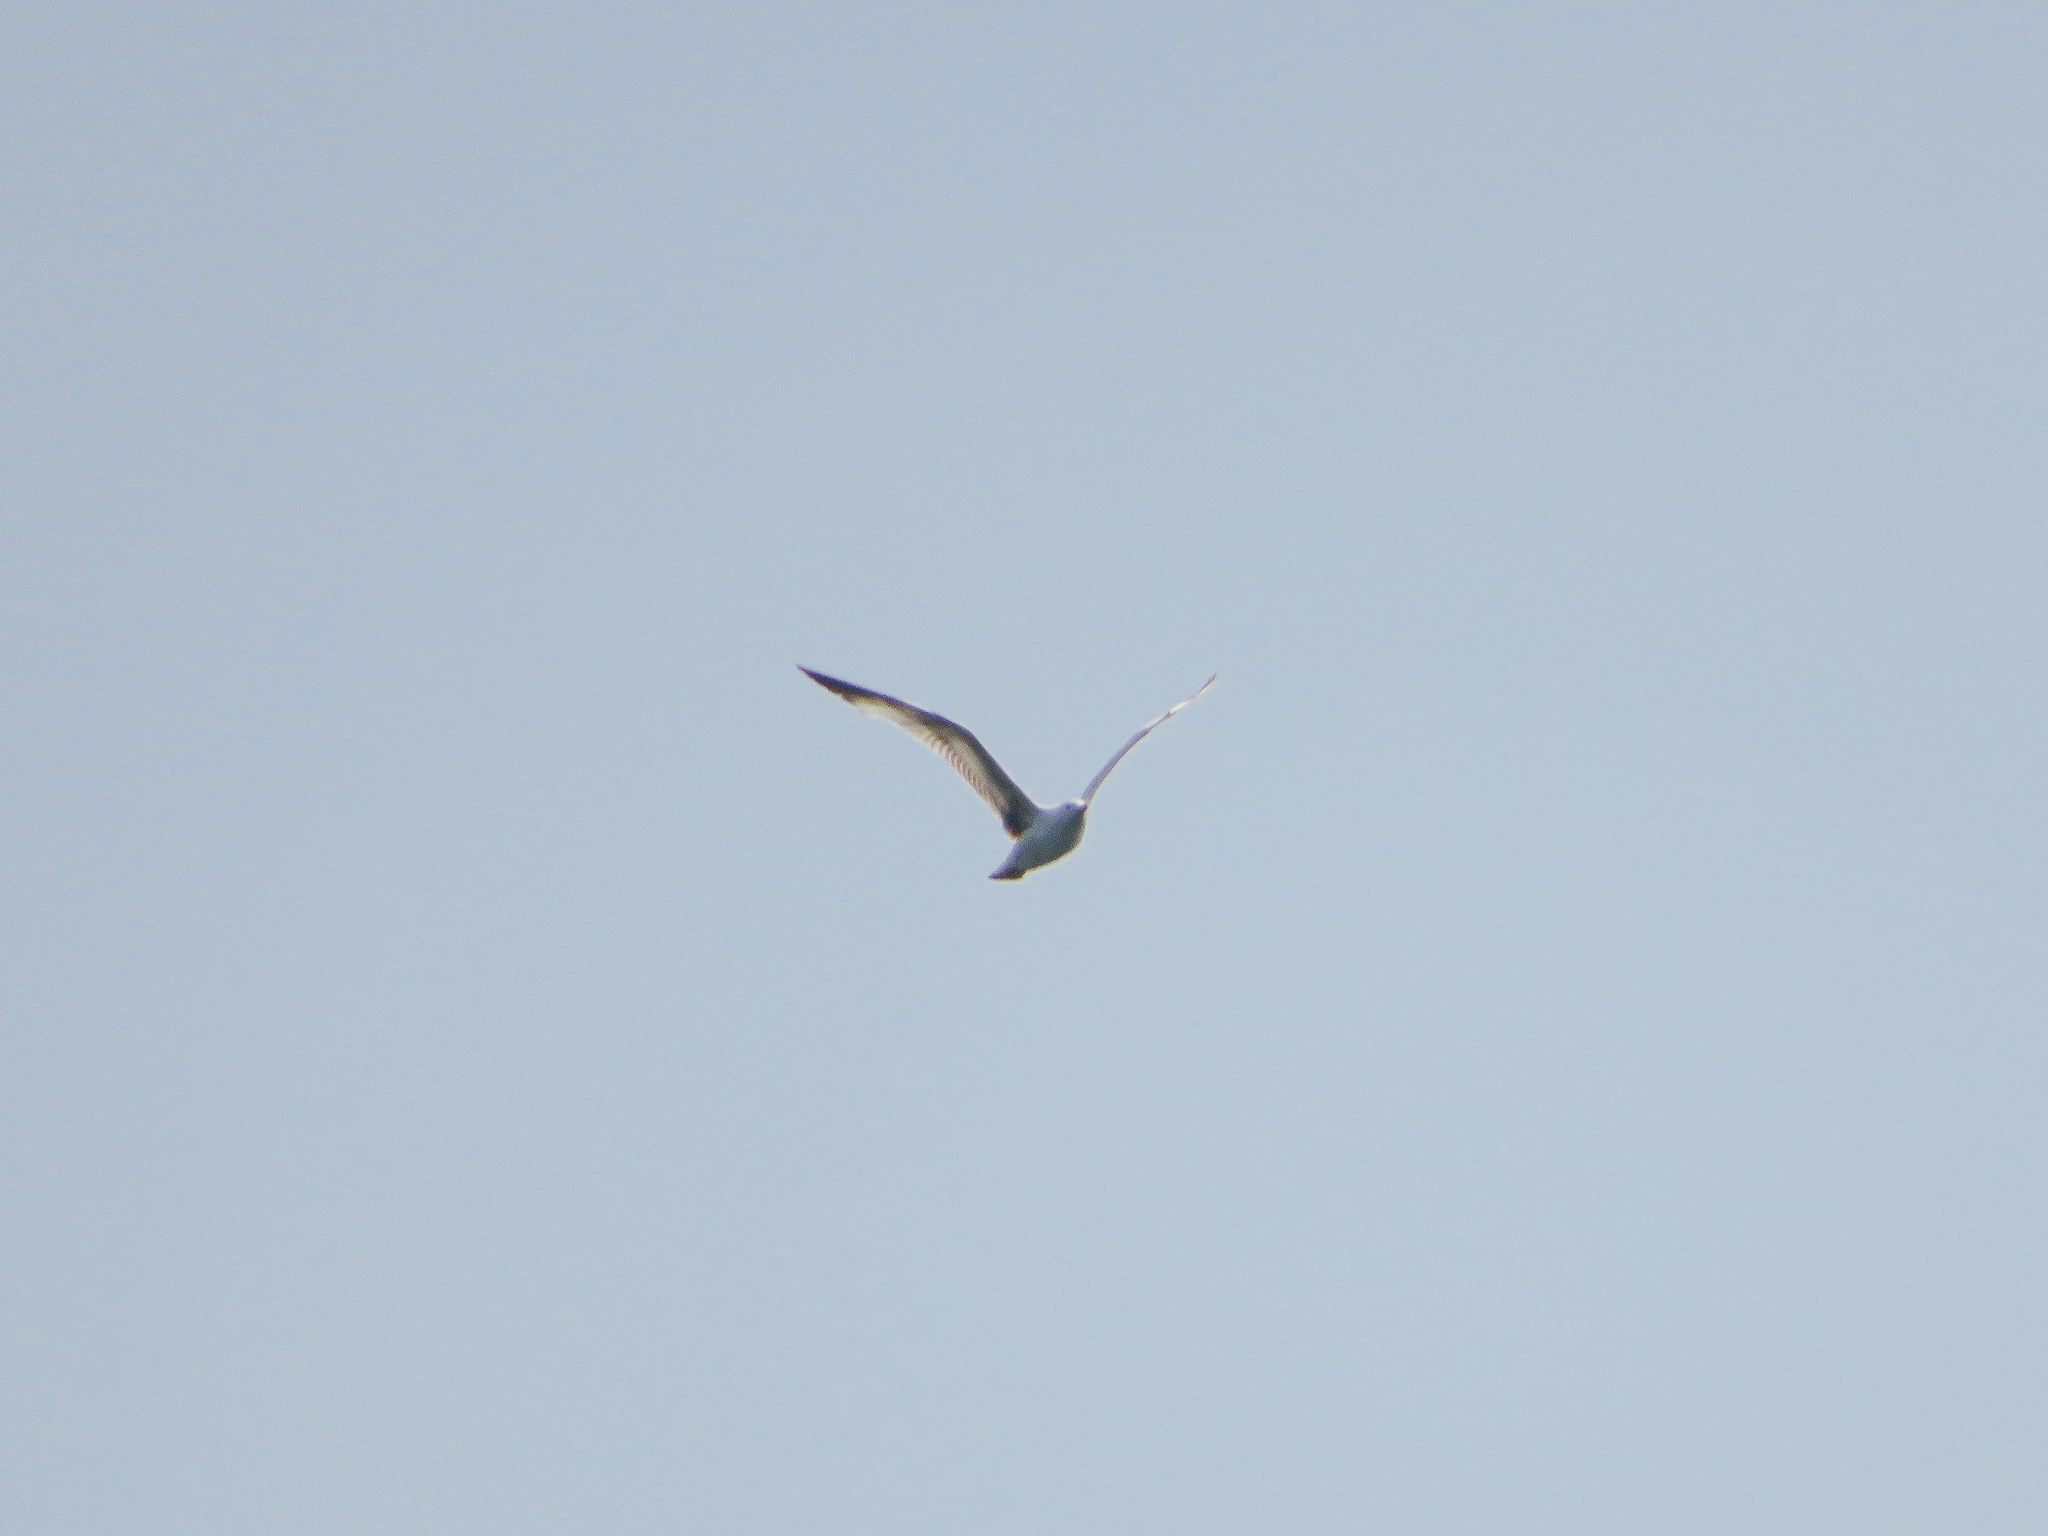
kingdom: Animalia
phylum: Chordata
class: Aves
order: Charadriiformes
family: Laridae
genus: Larus
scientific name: Larus
